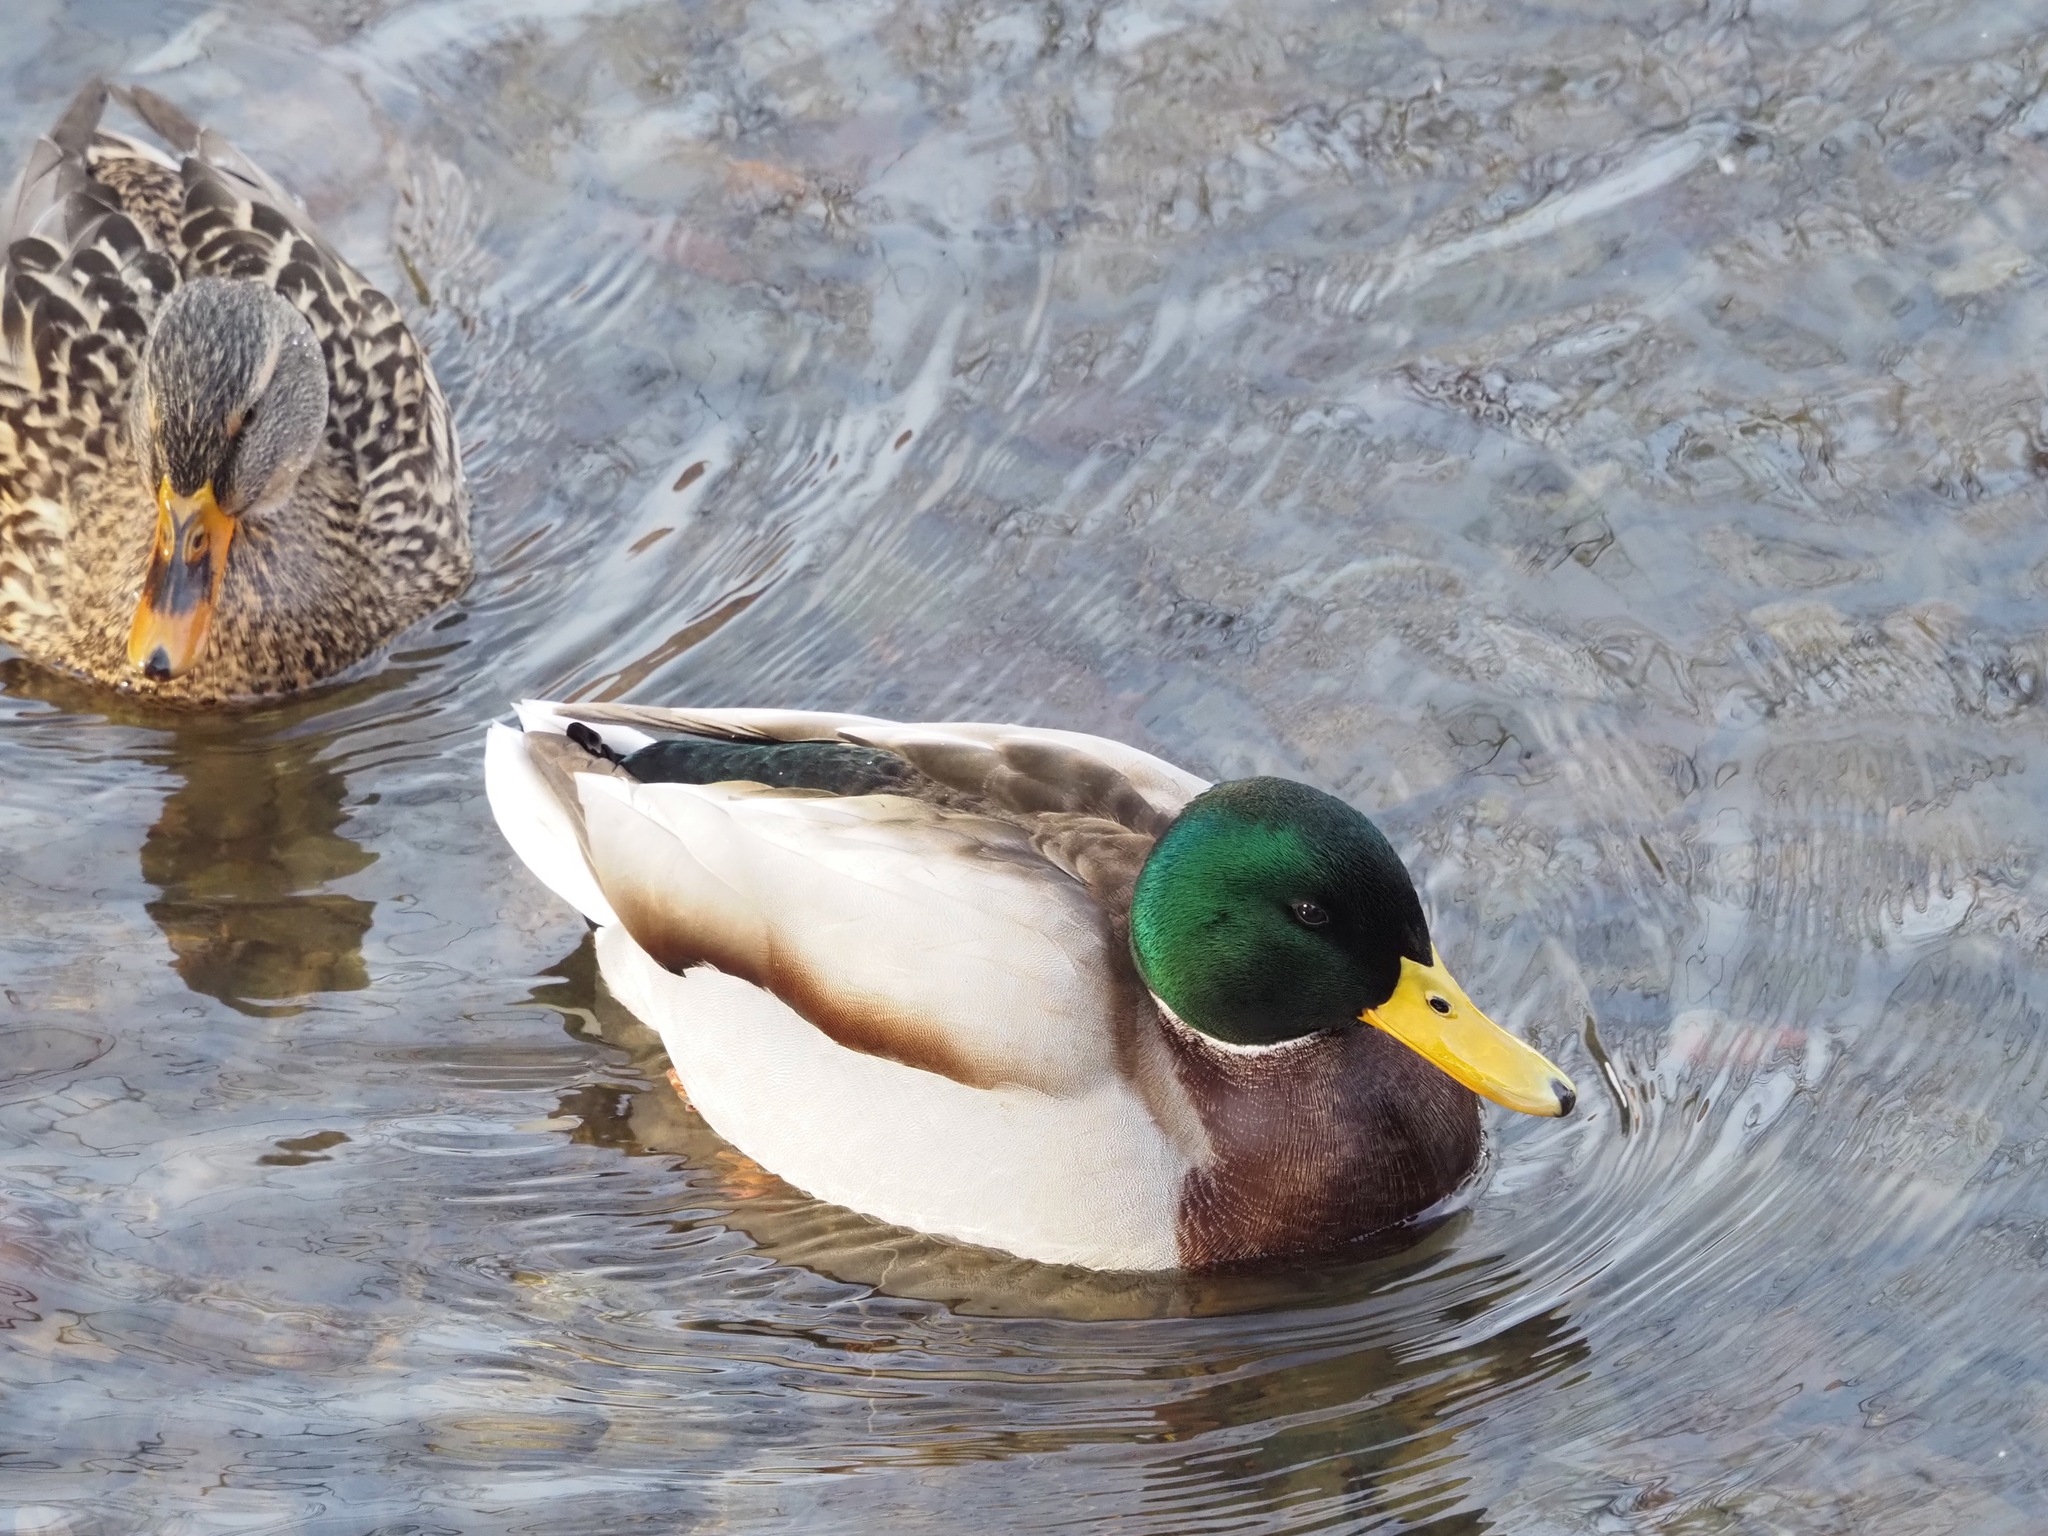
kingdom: Animalia
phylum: Chordata
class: Aves
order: Anseriformes
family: Anatidae
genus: Anas
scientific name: Anas platyrhynchos
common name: Mallard
